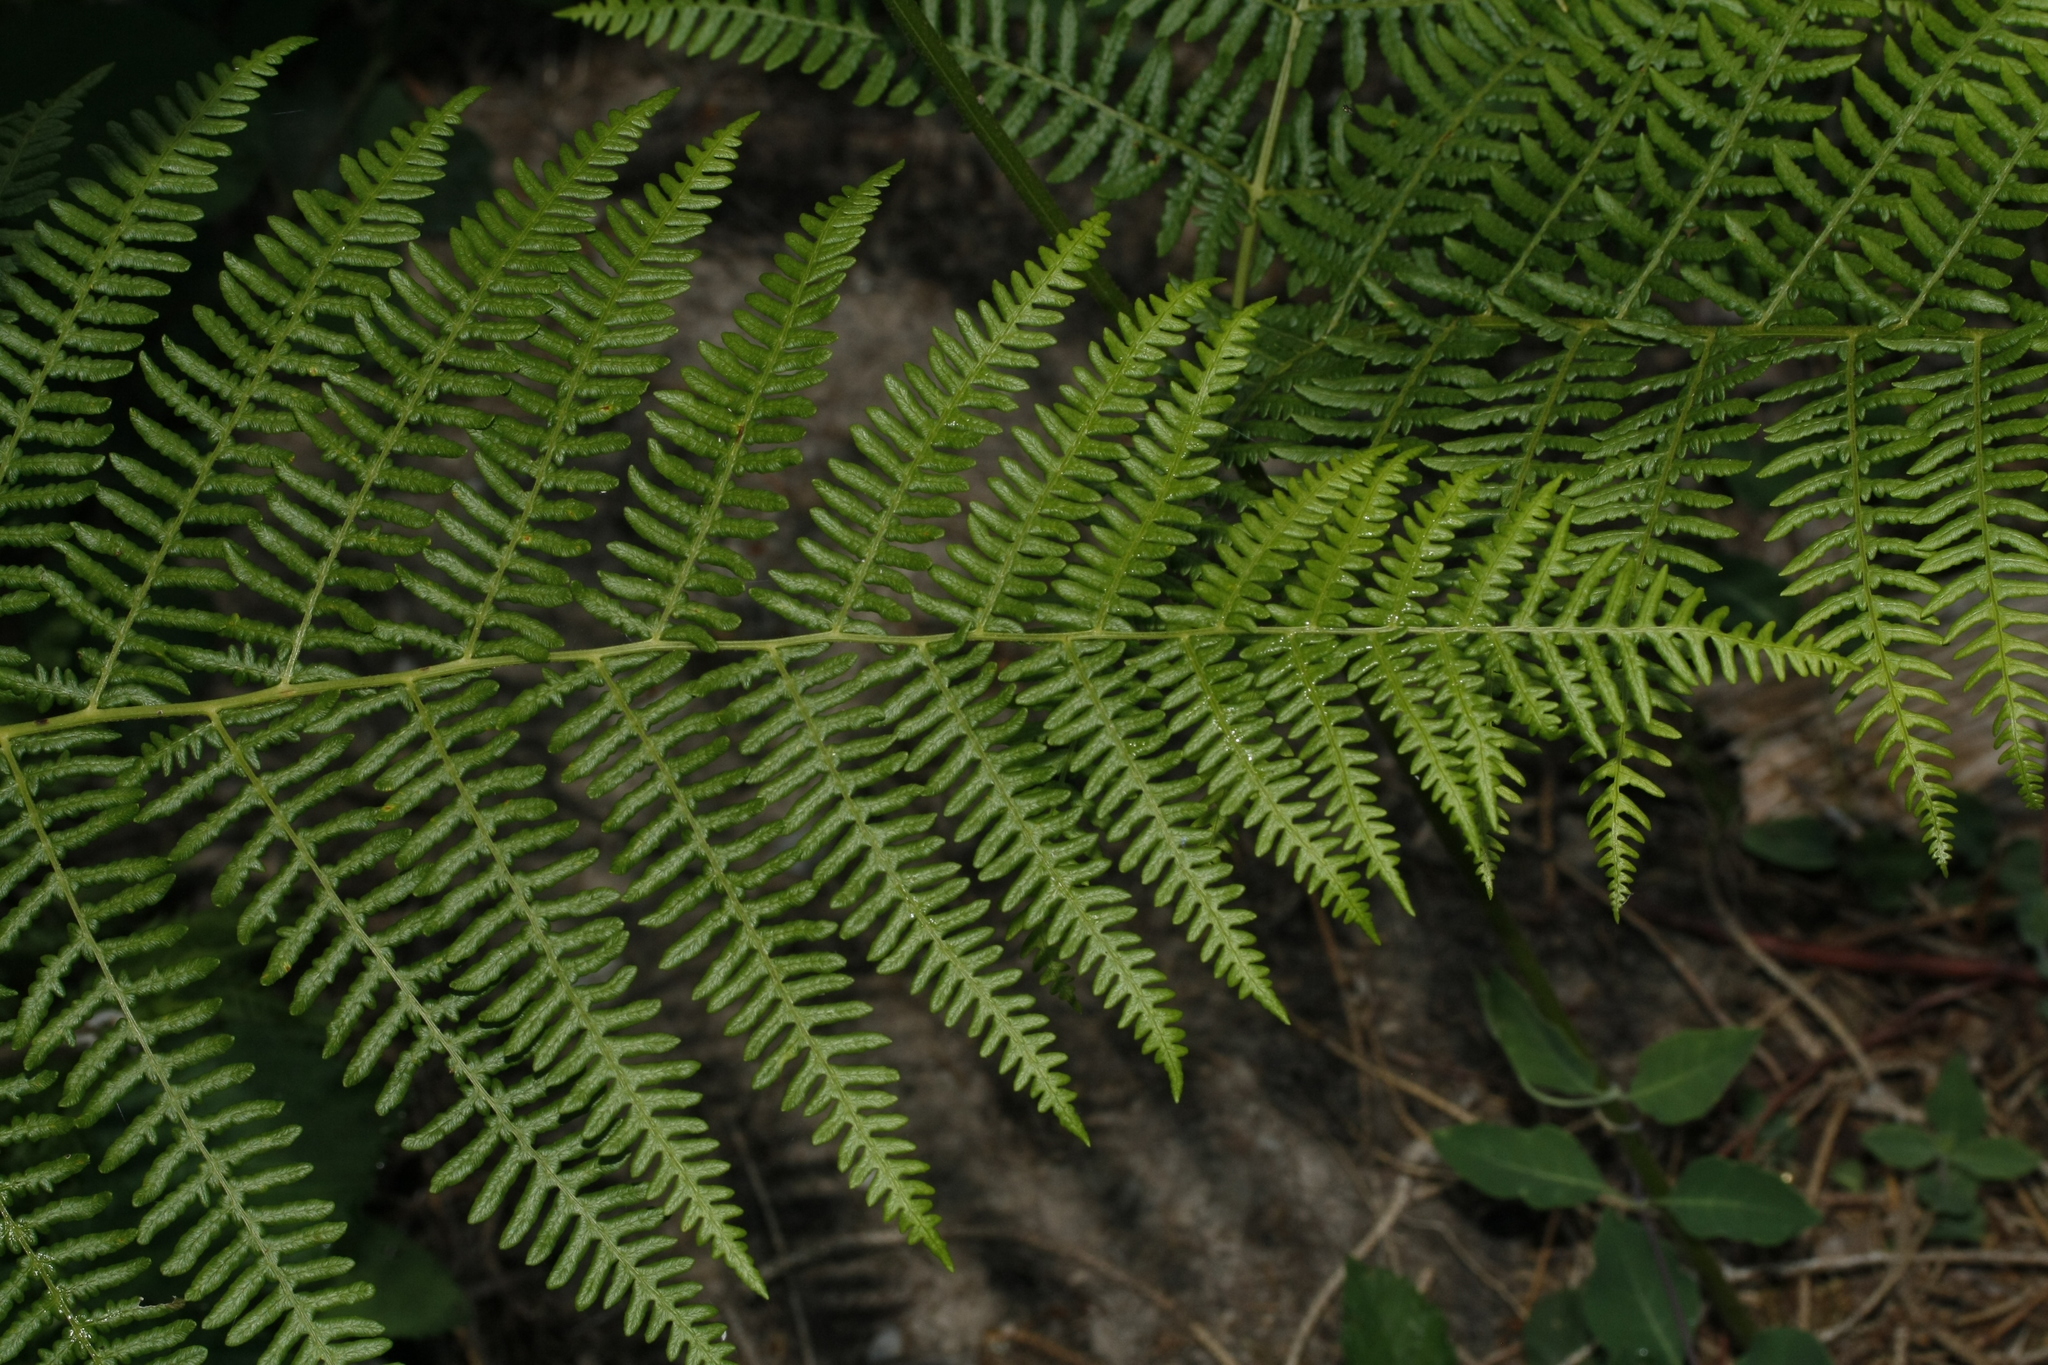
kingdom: Plantae
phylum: Tracheophyta
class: Polypodiopsida
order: Polypodiales
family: Dennstaedtiaceae
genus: Pteridium
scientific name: Pteridium aquilinum
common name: Bracken
